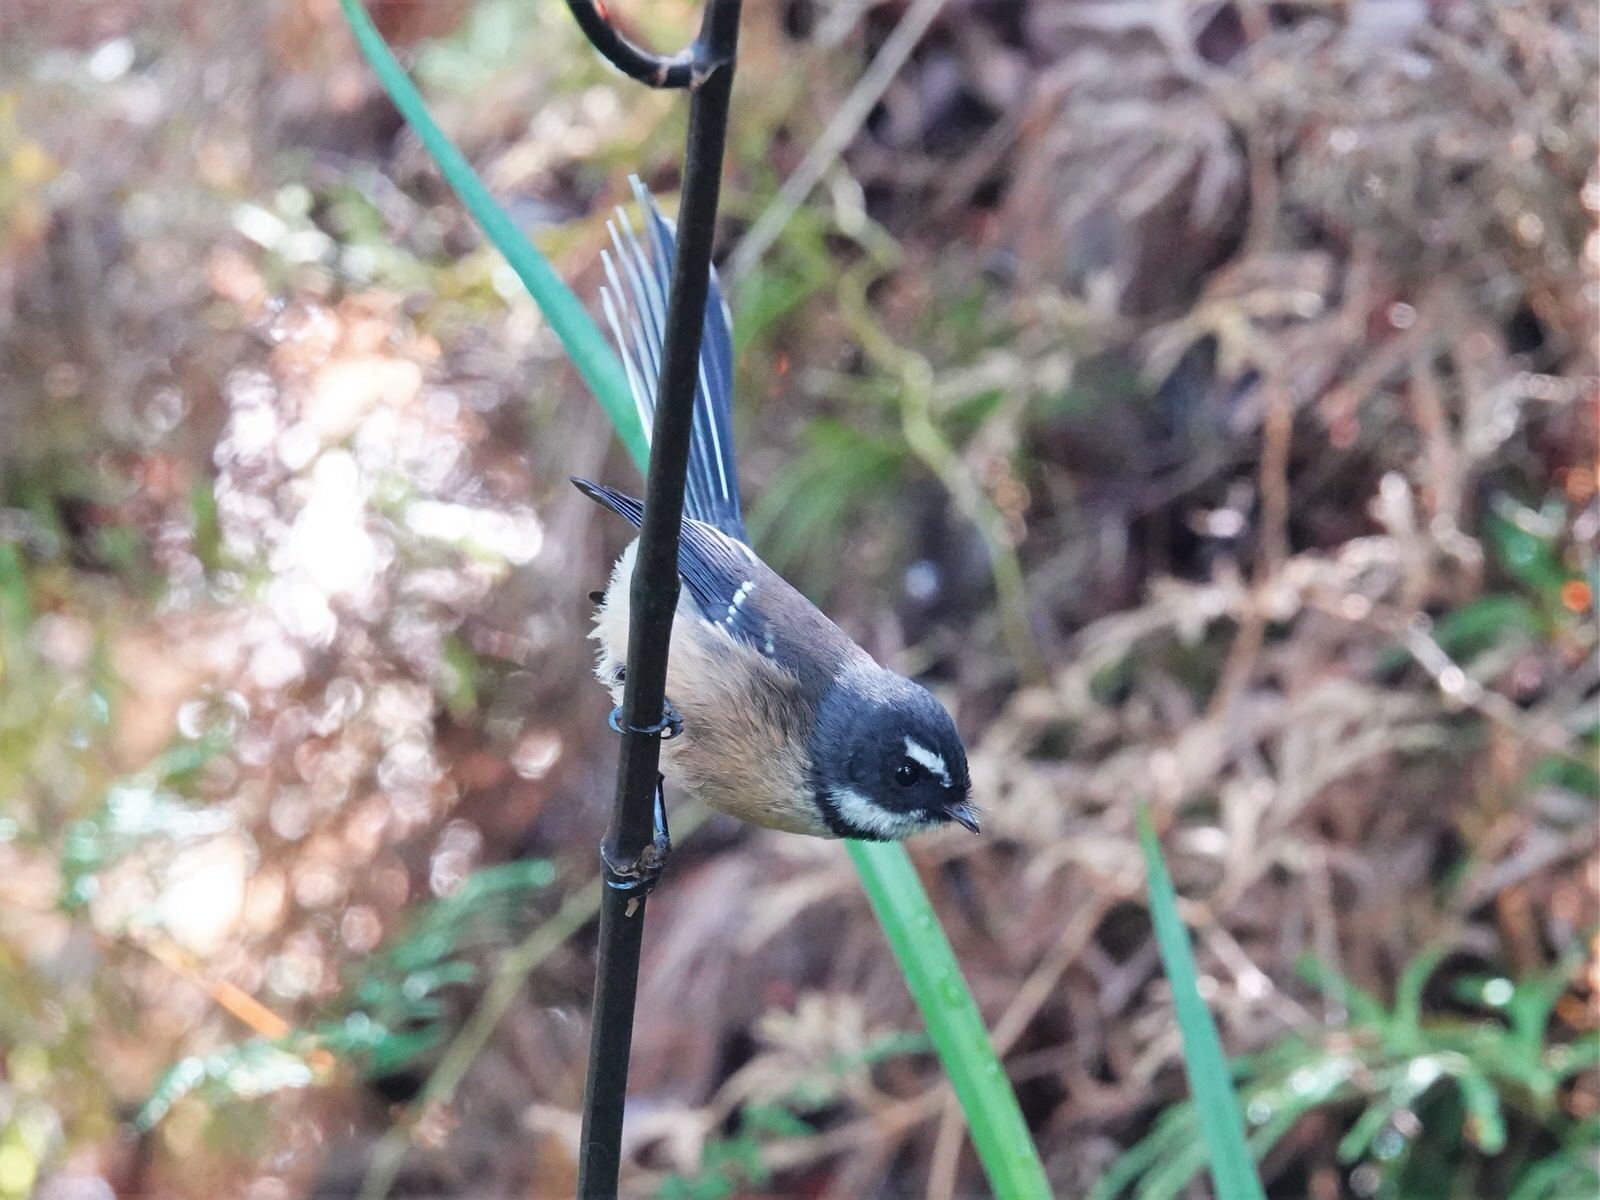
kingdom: Animalia
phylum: Chordata
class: Aves
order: Passeriformes
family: Rhipiduridae
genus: Rhipidura
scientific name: Rhipidura fuliginosa
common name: New zealand fantail
